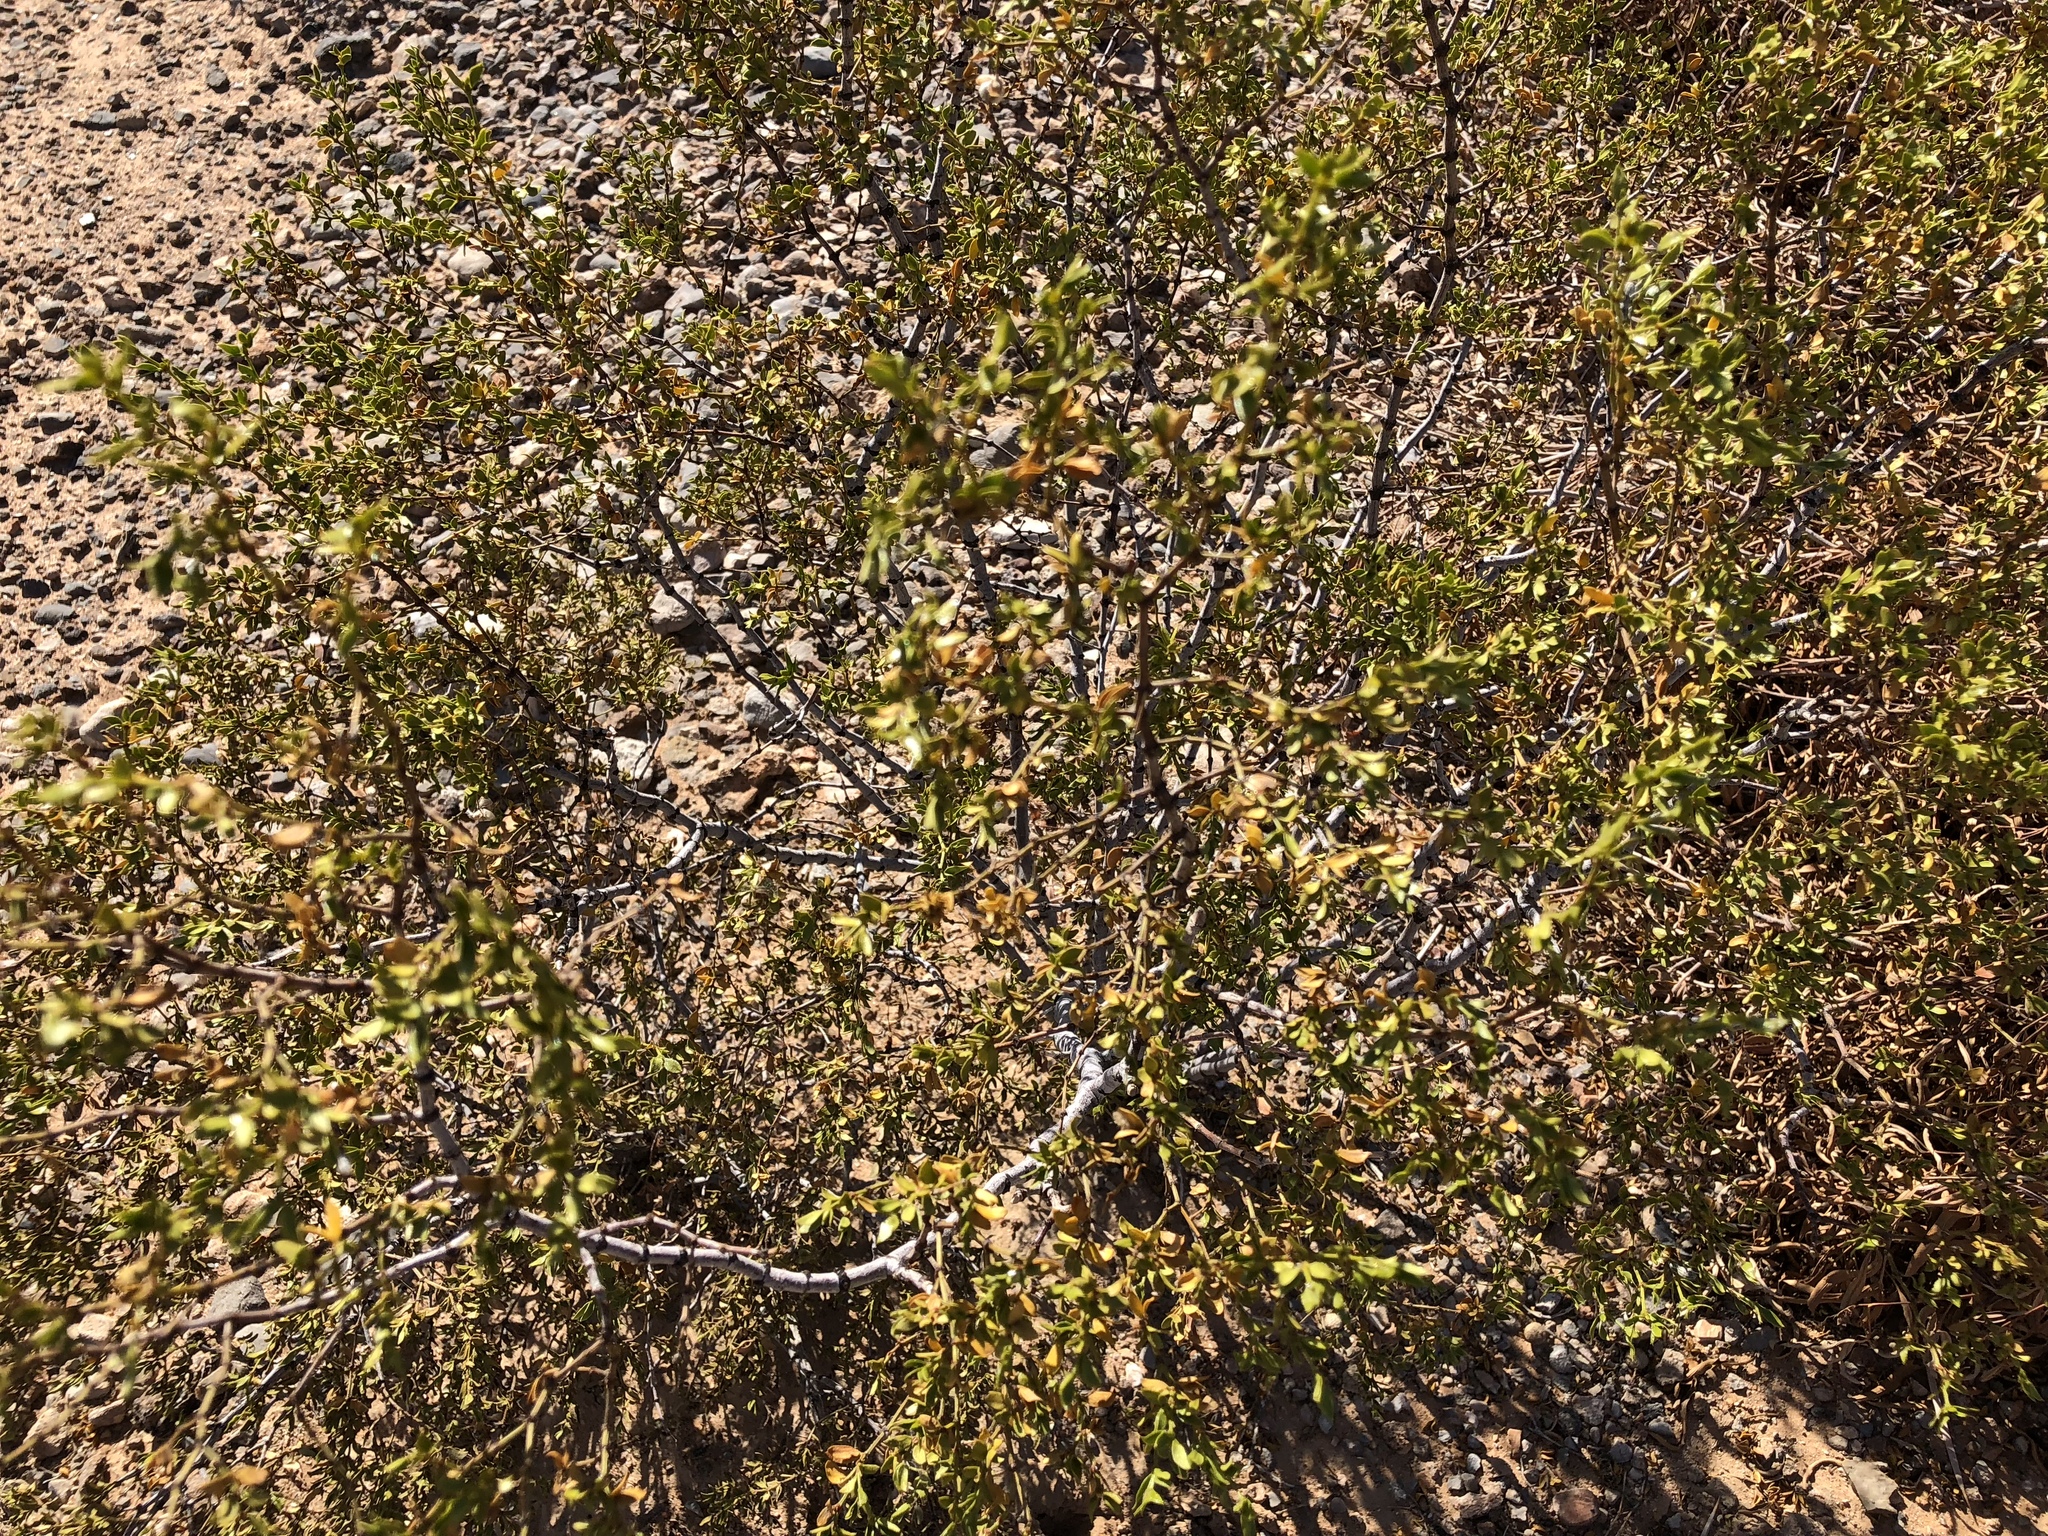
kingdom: Plantae
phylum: Tracheophyta
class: Magnoliopsida
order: Zygophyllales
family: Zygophyllaceae
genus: Larrea
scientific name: Larrea tridentata
